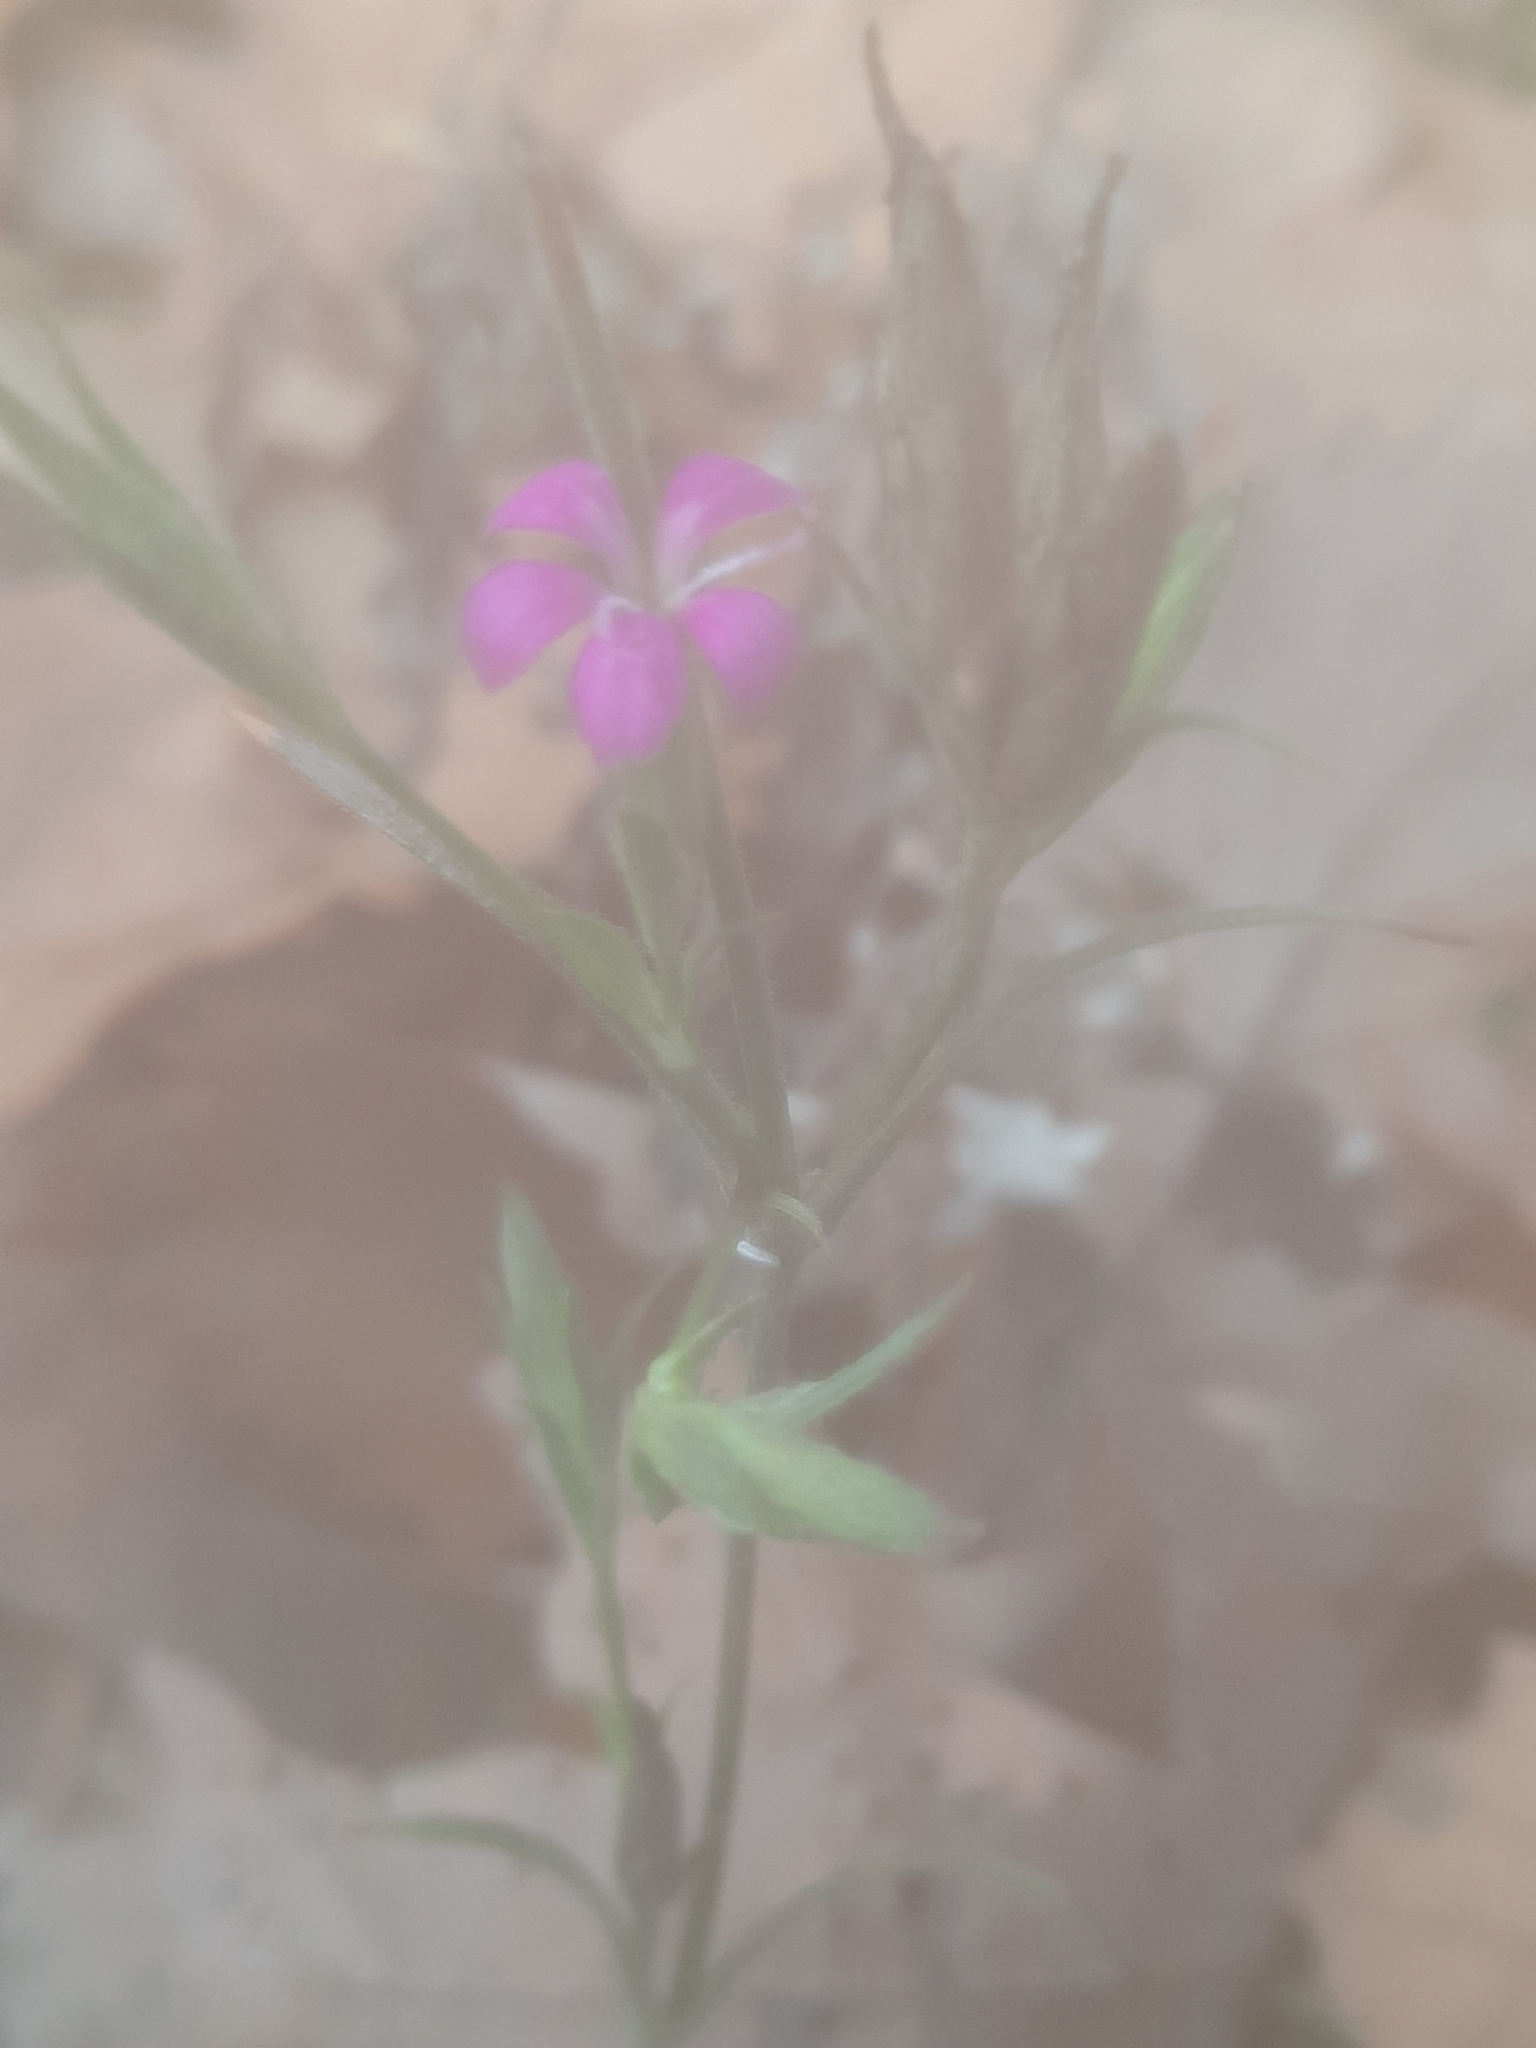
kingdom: Plantae
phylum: Tracheophyta
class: Magnoliopsida
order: Caryophyllales
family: Caryophyllaceae
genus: Dianthus
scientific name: Dianthus armeria
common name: Deptford pink
